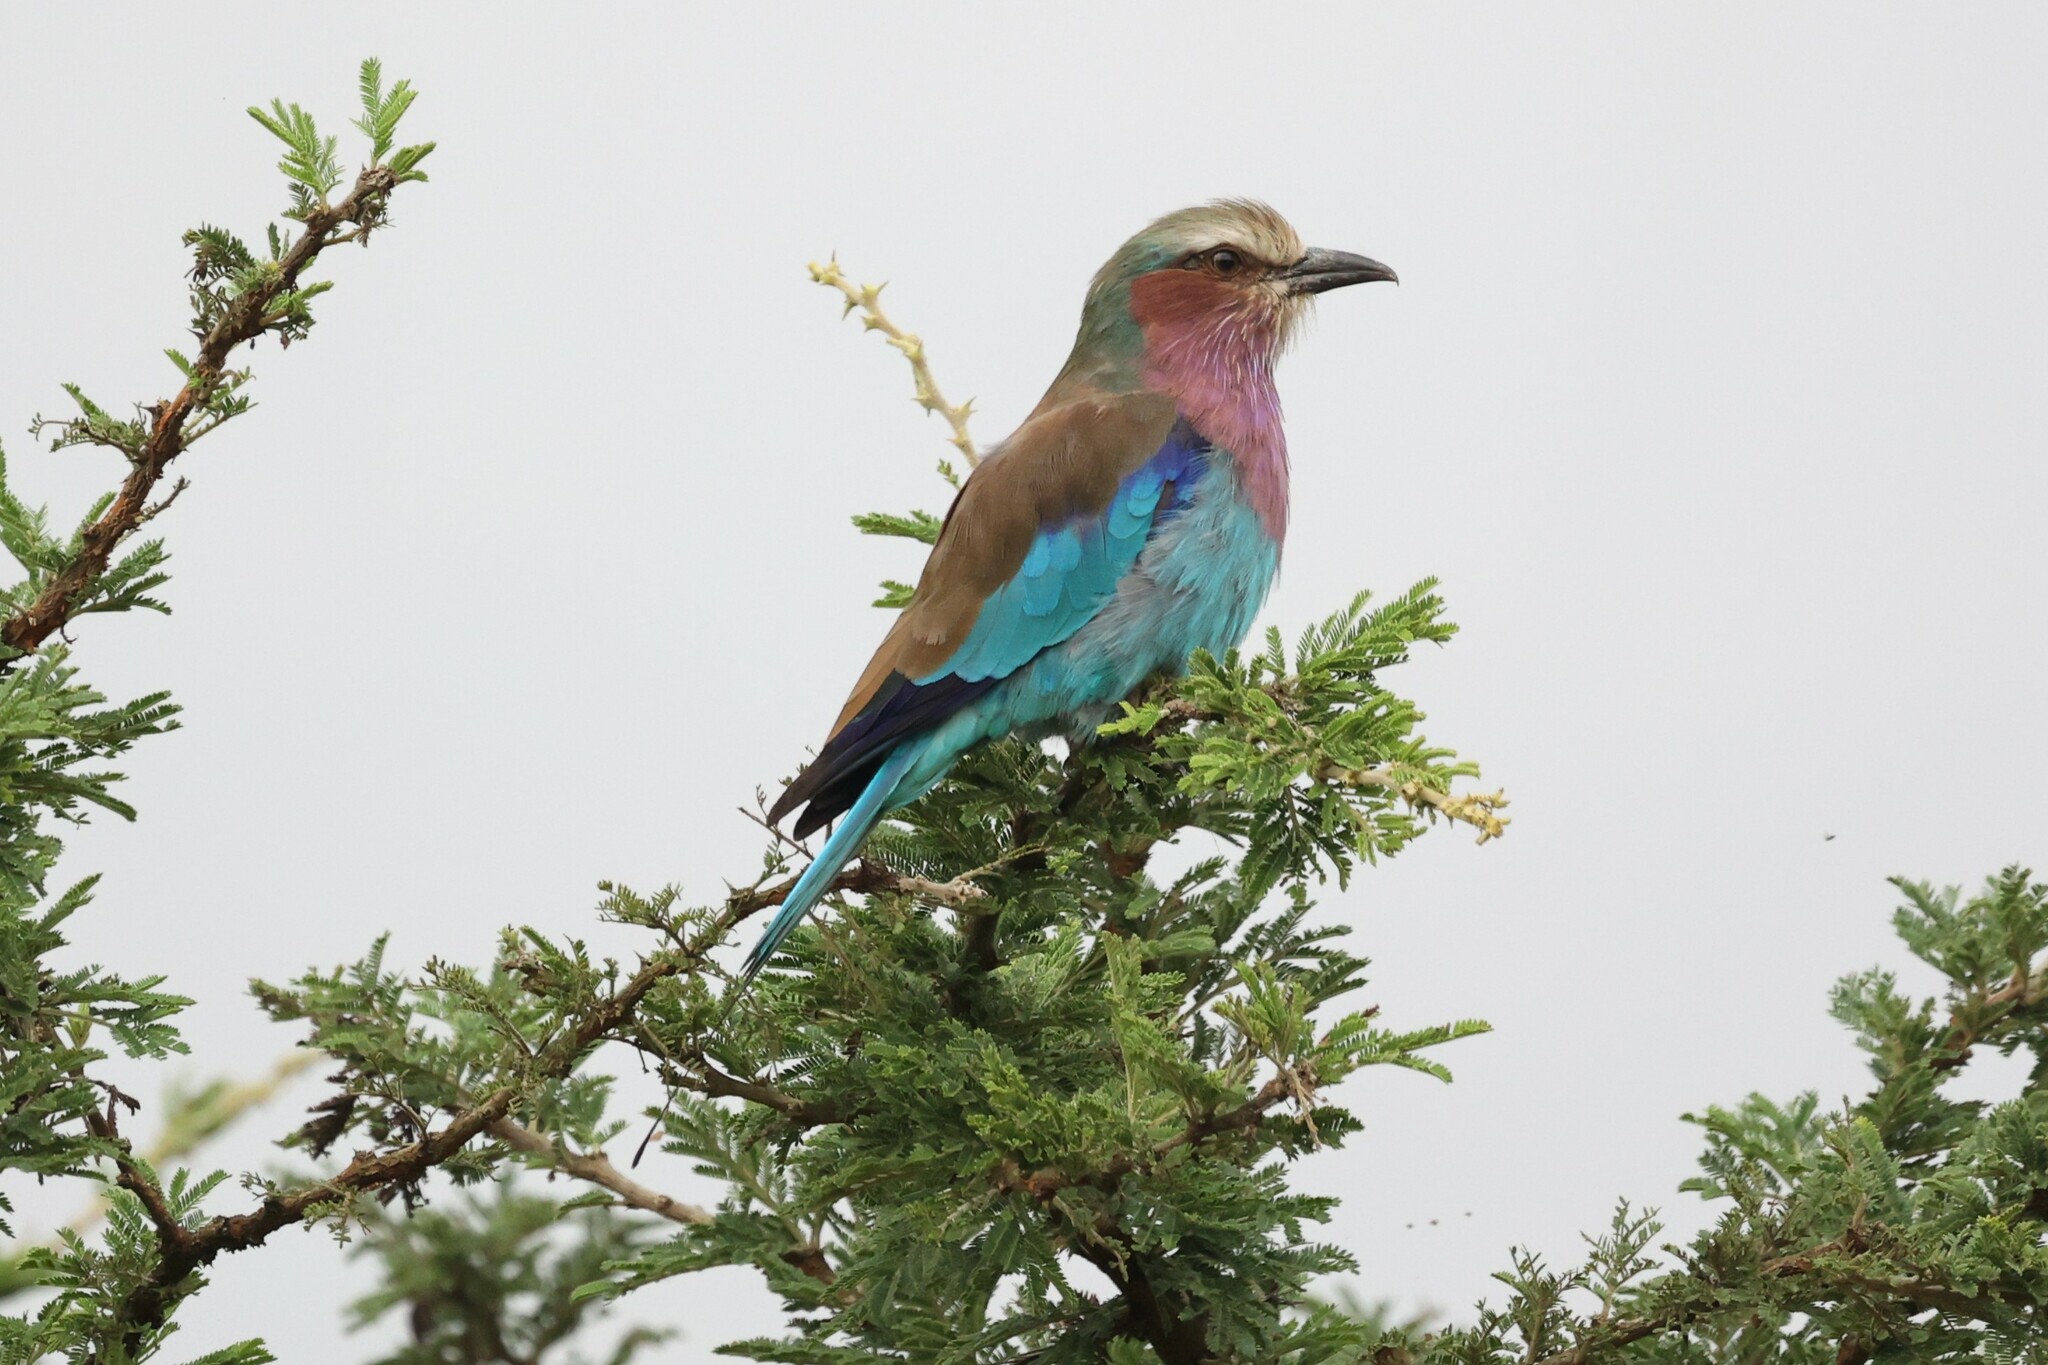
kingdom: Animalia
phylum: Chordata
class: Aves
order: Coraciiformes
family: Coraciidae
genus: Coracias
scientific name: Coracias caudatus
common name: Lilac-breasted roller
